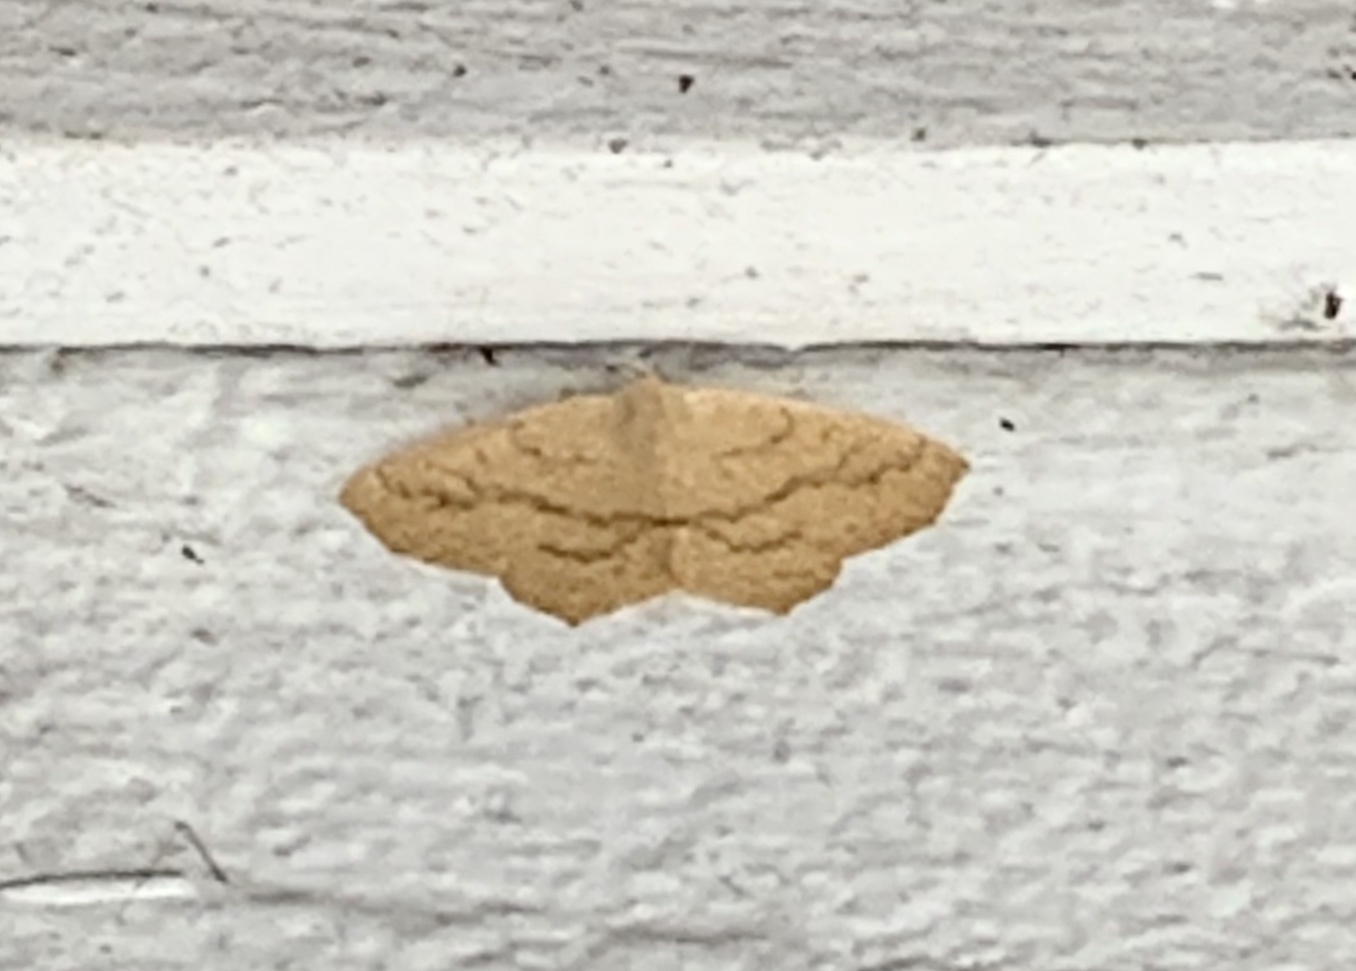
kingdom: Animalia
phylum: Arthropoda
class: Insecta
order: Lepidoptera
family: Geometridae
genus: Sabulodes
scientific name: Sabulodes aegrotata
